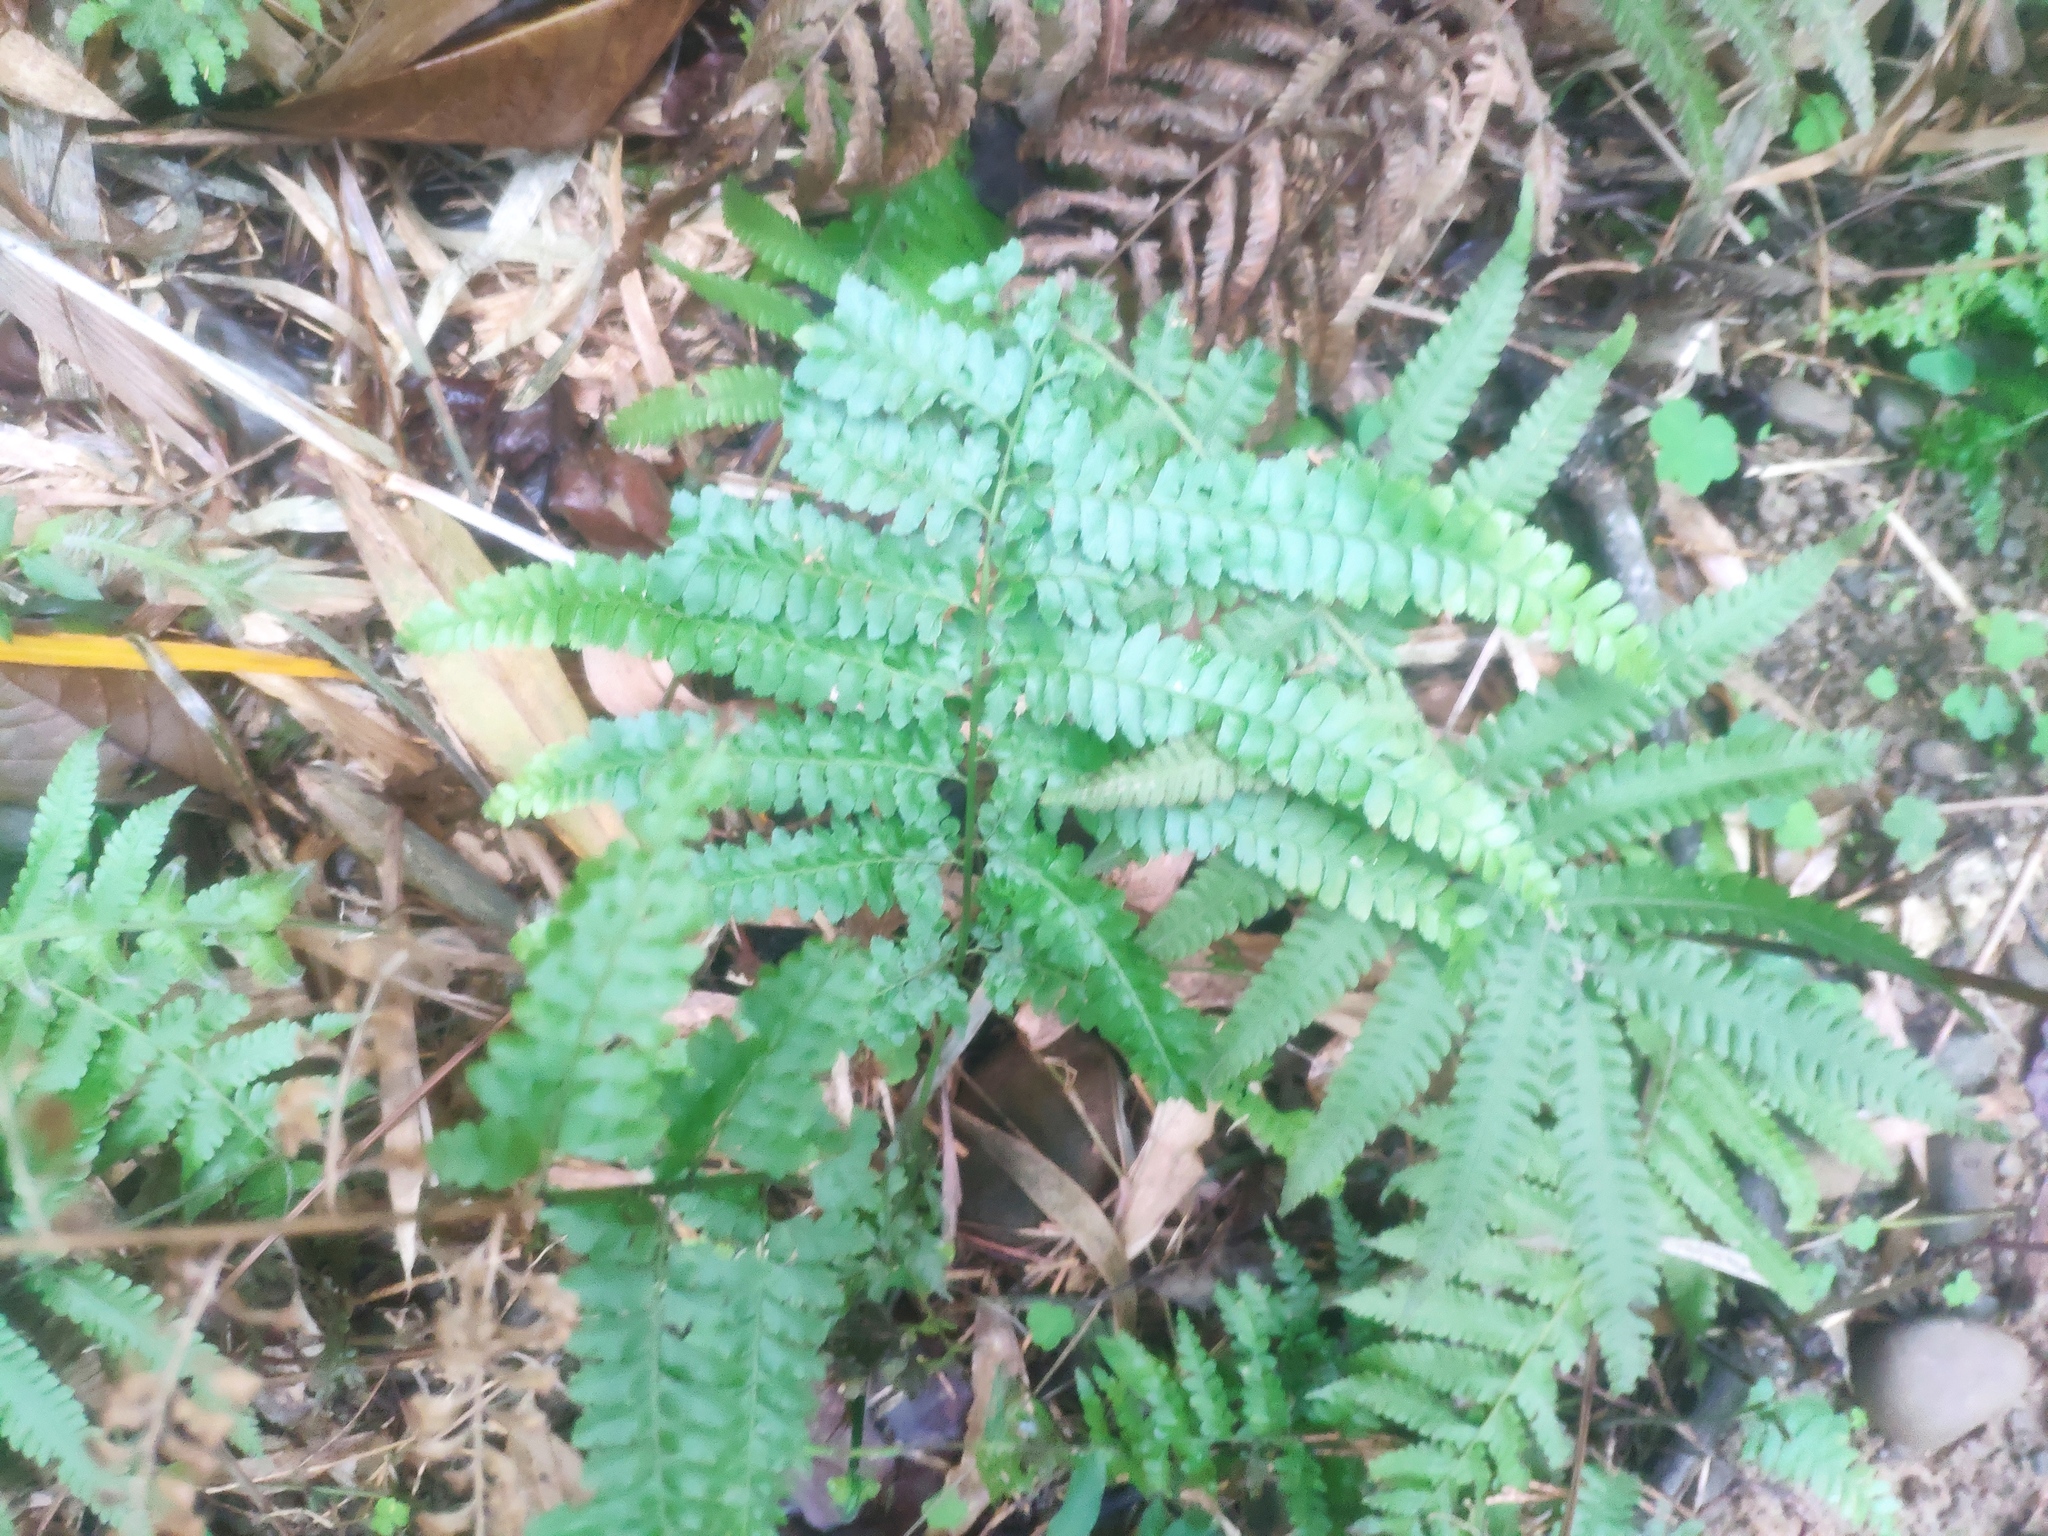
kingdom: Plantae
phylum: Tracheophyta
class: Polypodiopsida
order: Polypodiales
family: Dennstaedtiaceae
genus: Microlepia
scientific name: Microlepia strigosa
